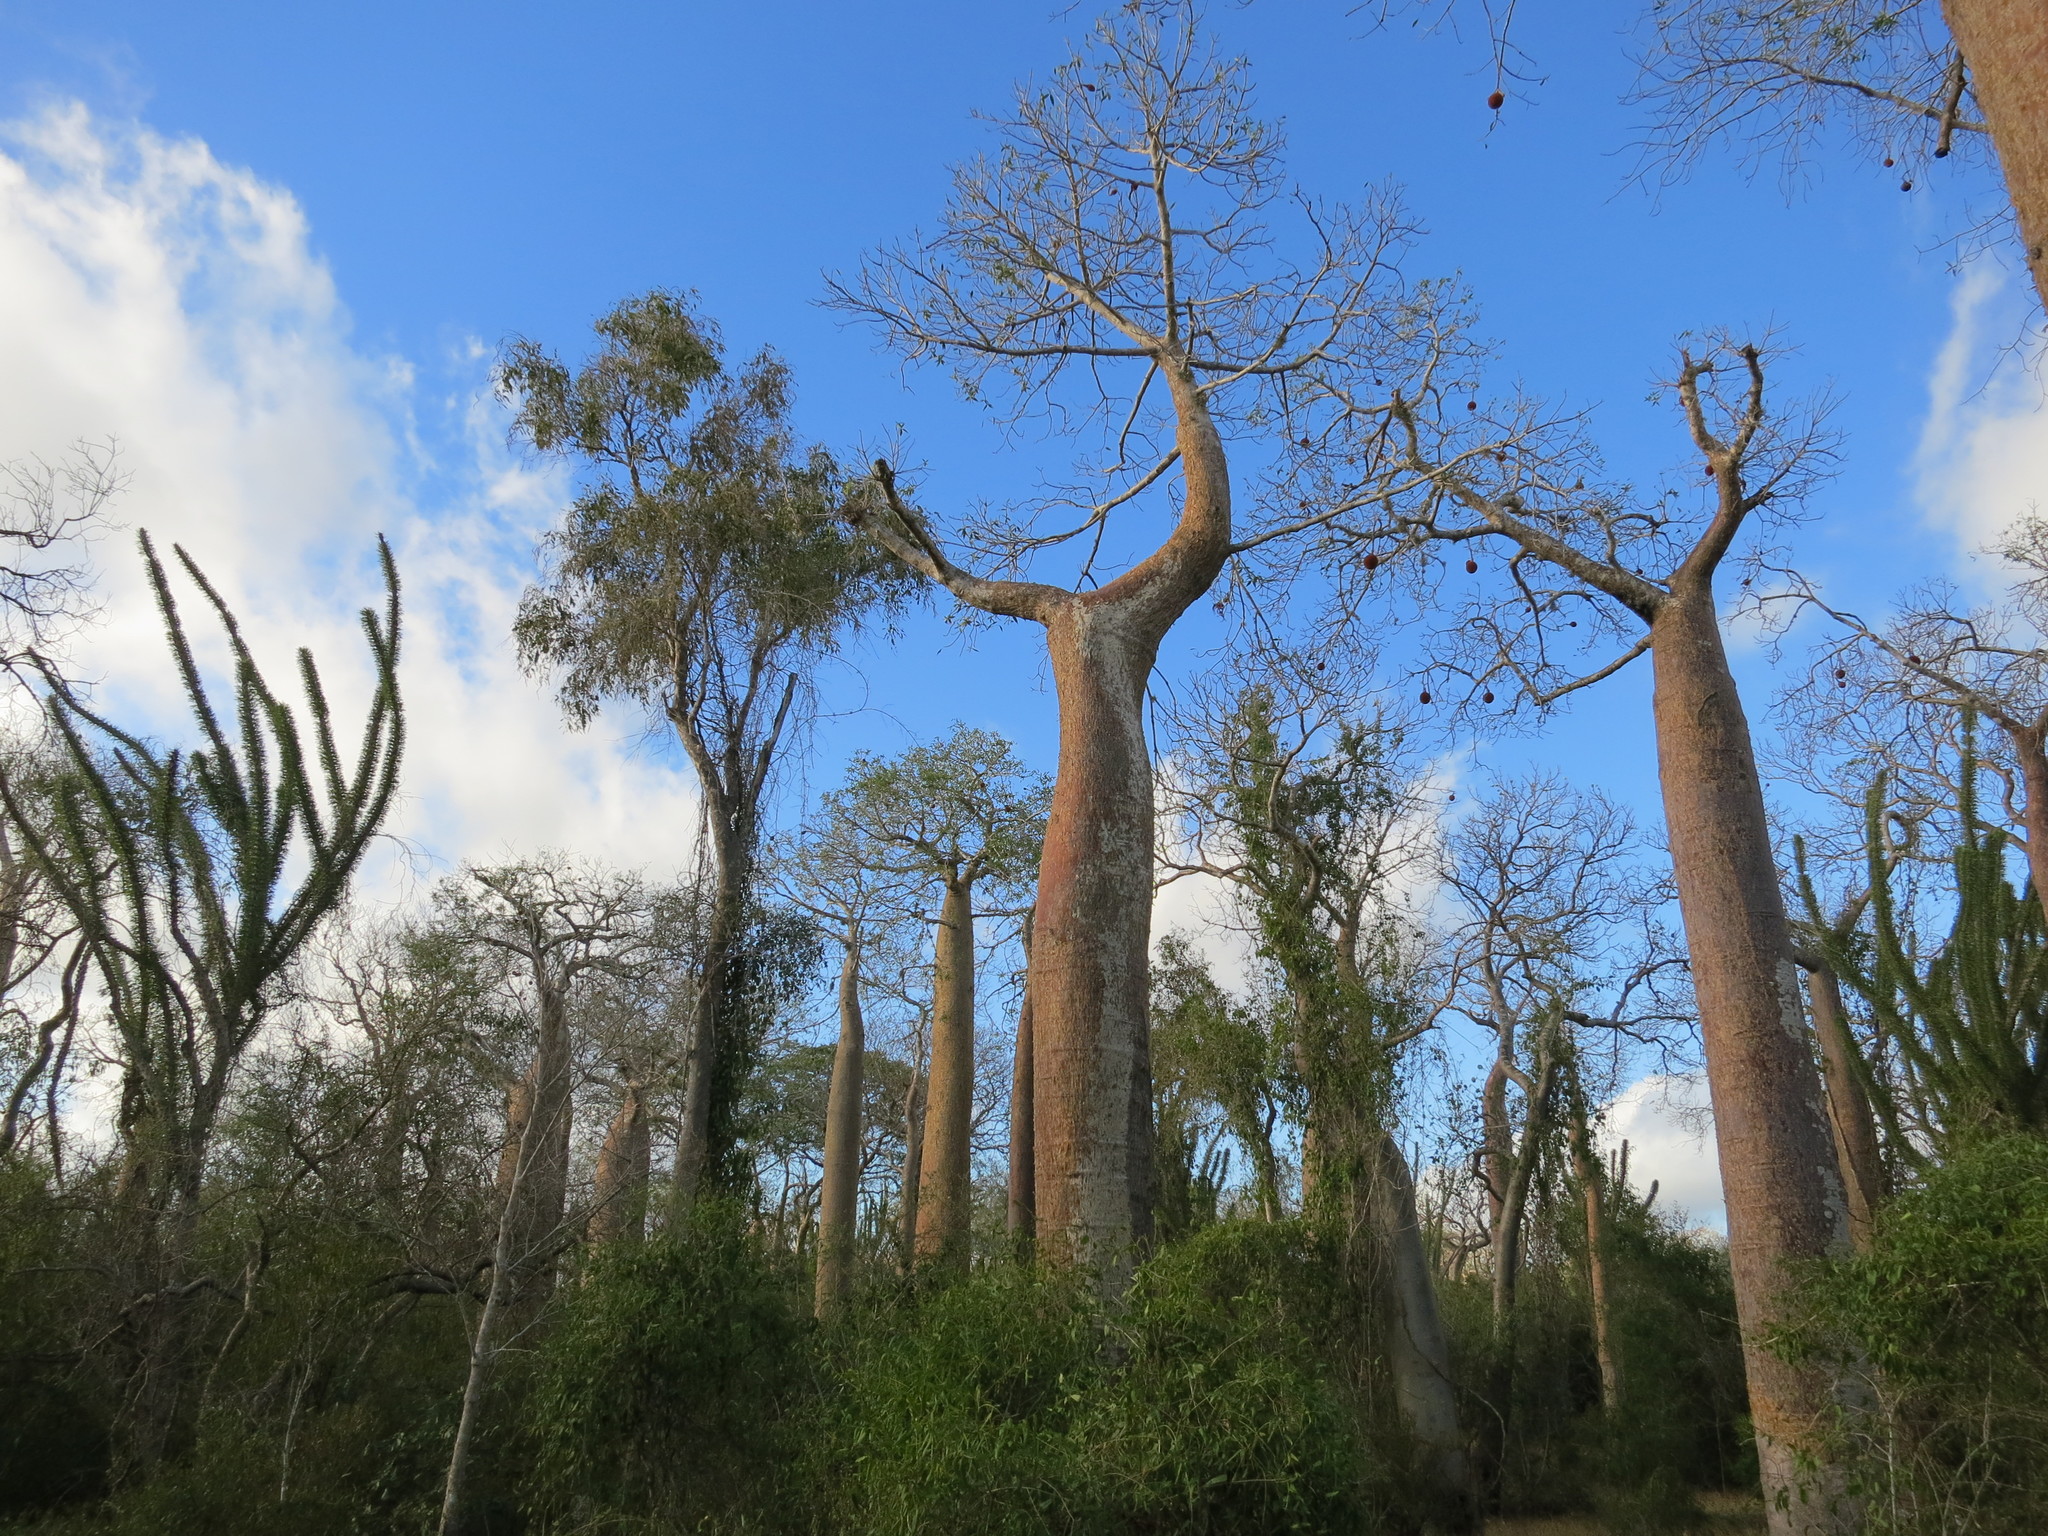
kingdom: Plantae
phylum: Tracheophyta
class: Magnoliopsida
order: Malvales
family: Malvaceae
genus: Adansonia
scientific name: Adansonia rubrostipa
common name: Fony baobab
